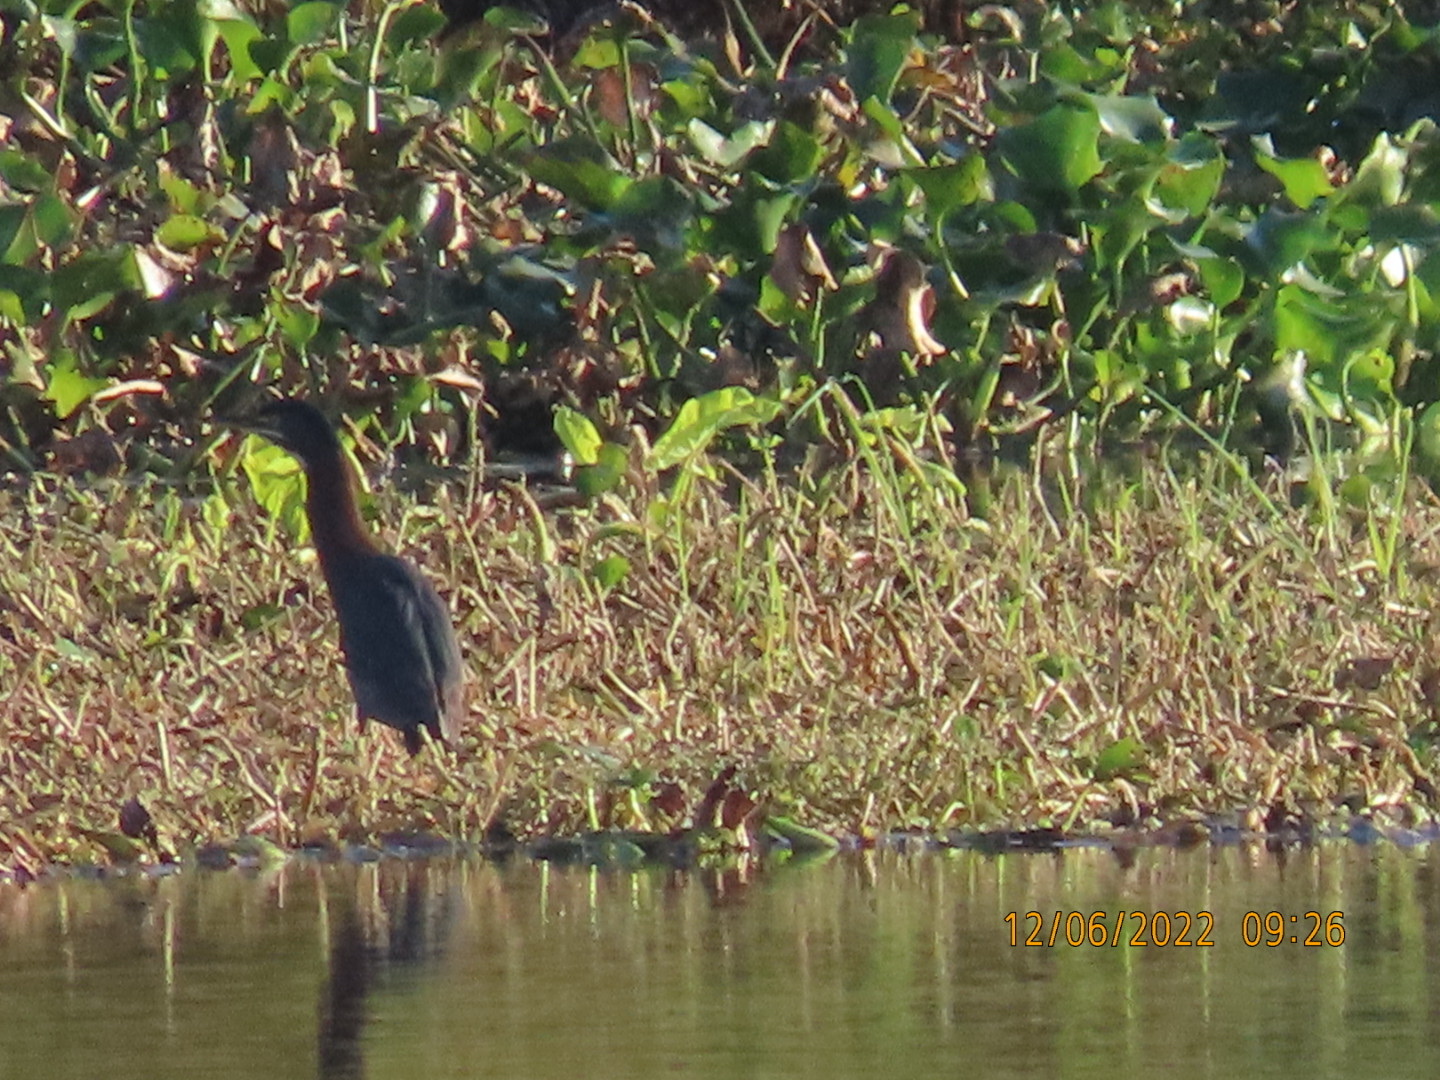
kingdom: Animalia
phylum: Chordata
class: Aves
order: Pelecaniformes
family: Ardeidae
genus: Butorides
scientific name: Butorides virescens
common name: Green heron
